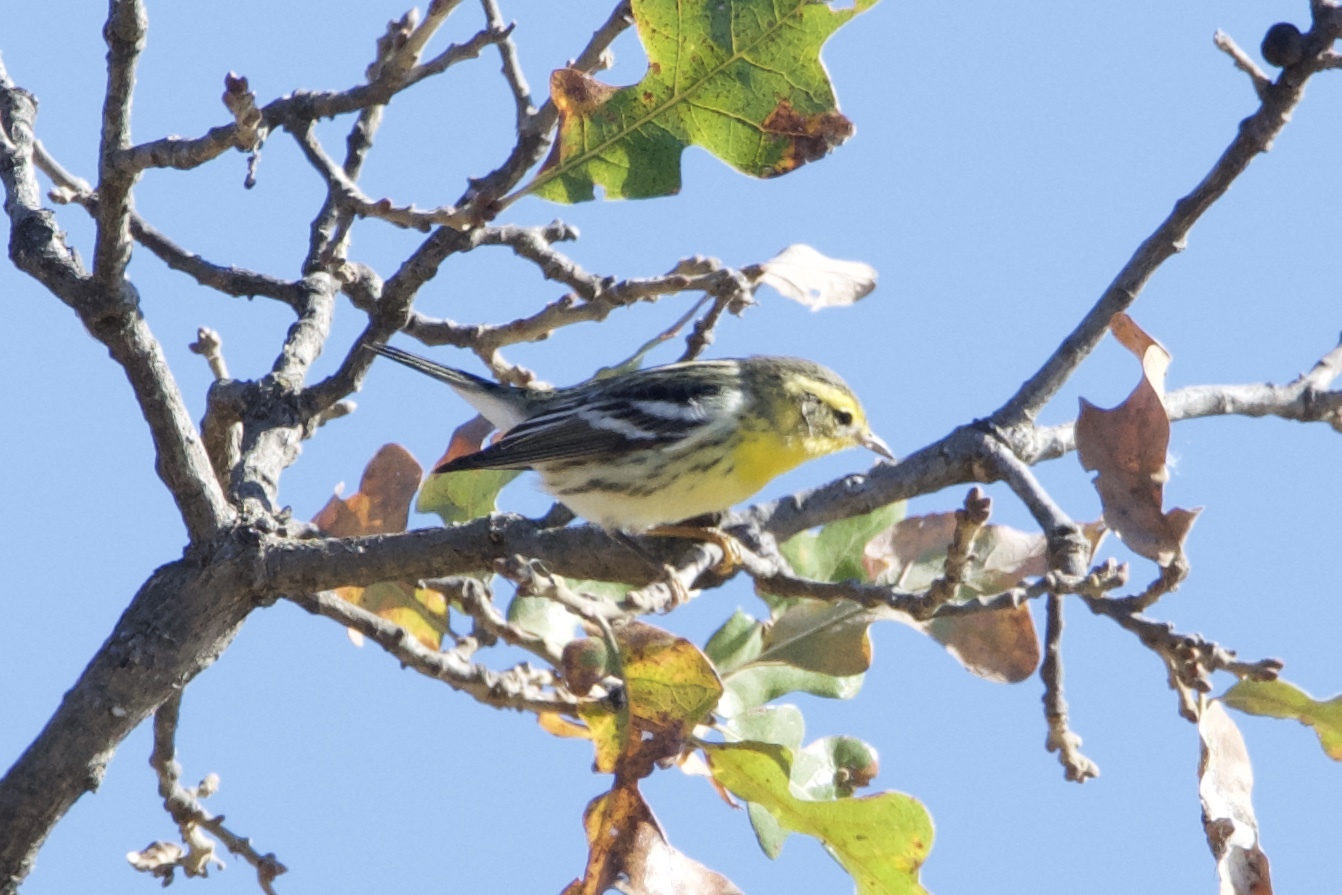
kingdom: Animalia
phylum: Chordata
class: Aves
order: Passeriformes
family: Parulidae
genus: Setophaga
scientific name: Setophaga fusca
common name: Blackburnian warbler
